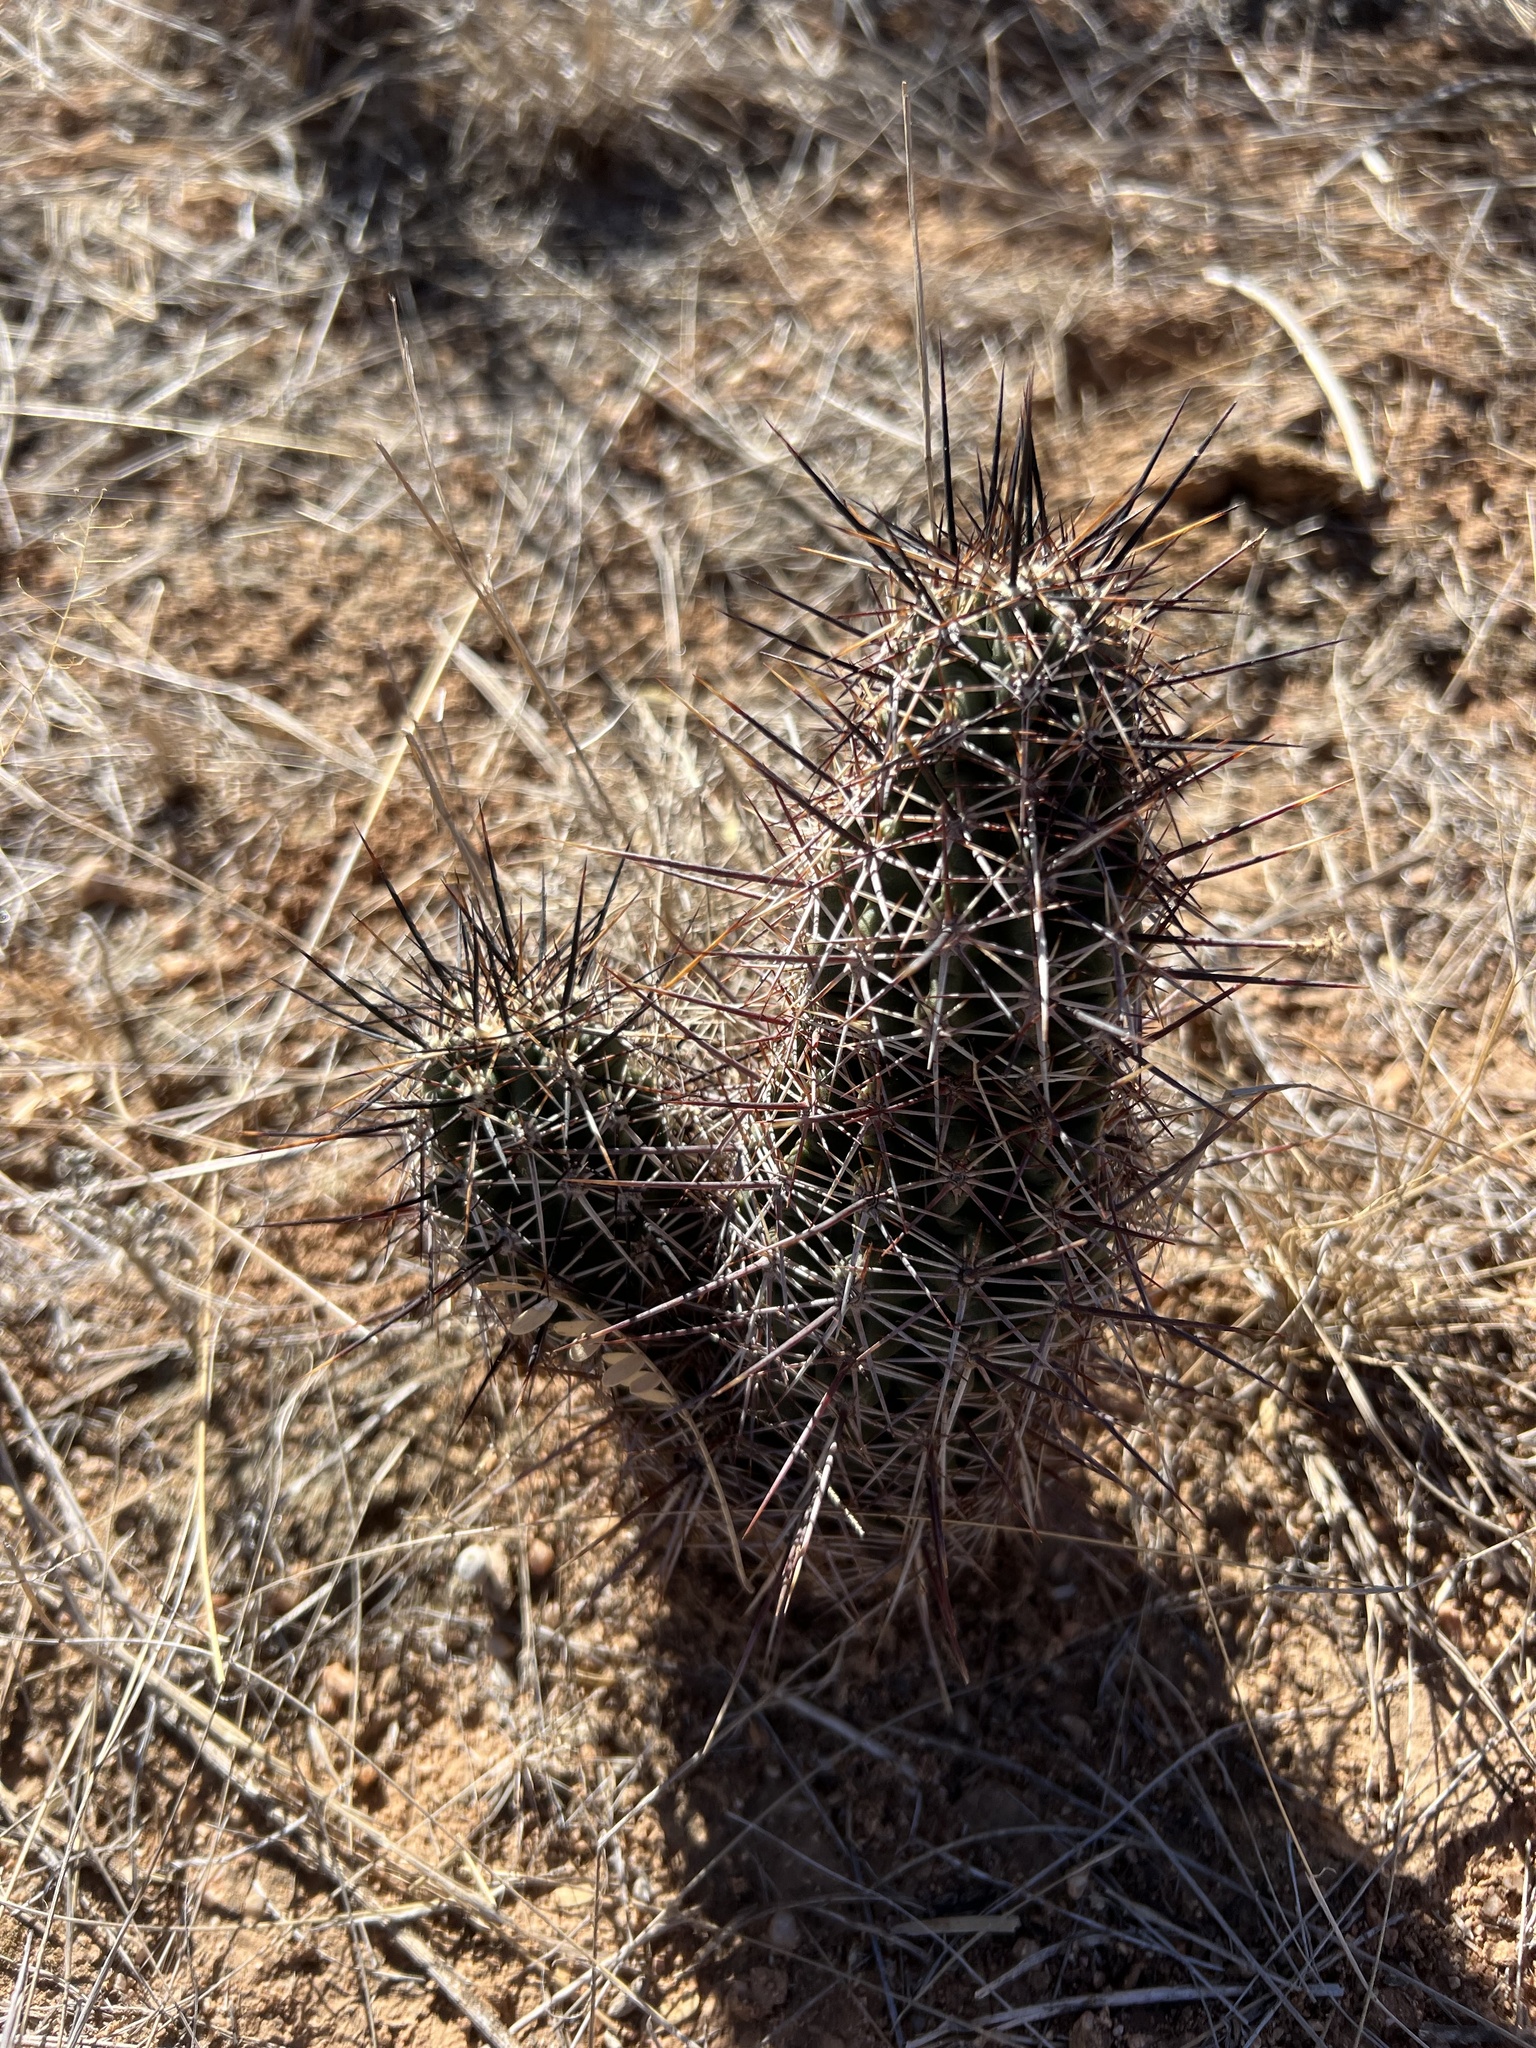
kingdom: Plantae
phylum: Tracheophyta
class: Magnoliopsida
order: Caryophyllales
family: Cactaceae
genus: Echinocereus
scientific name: Echinocereus fasciculatus
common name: Bundle hedgehog
